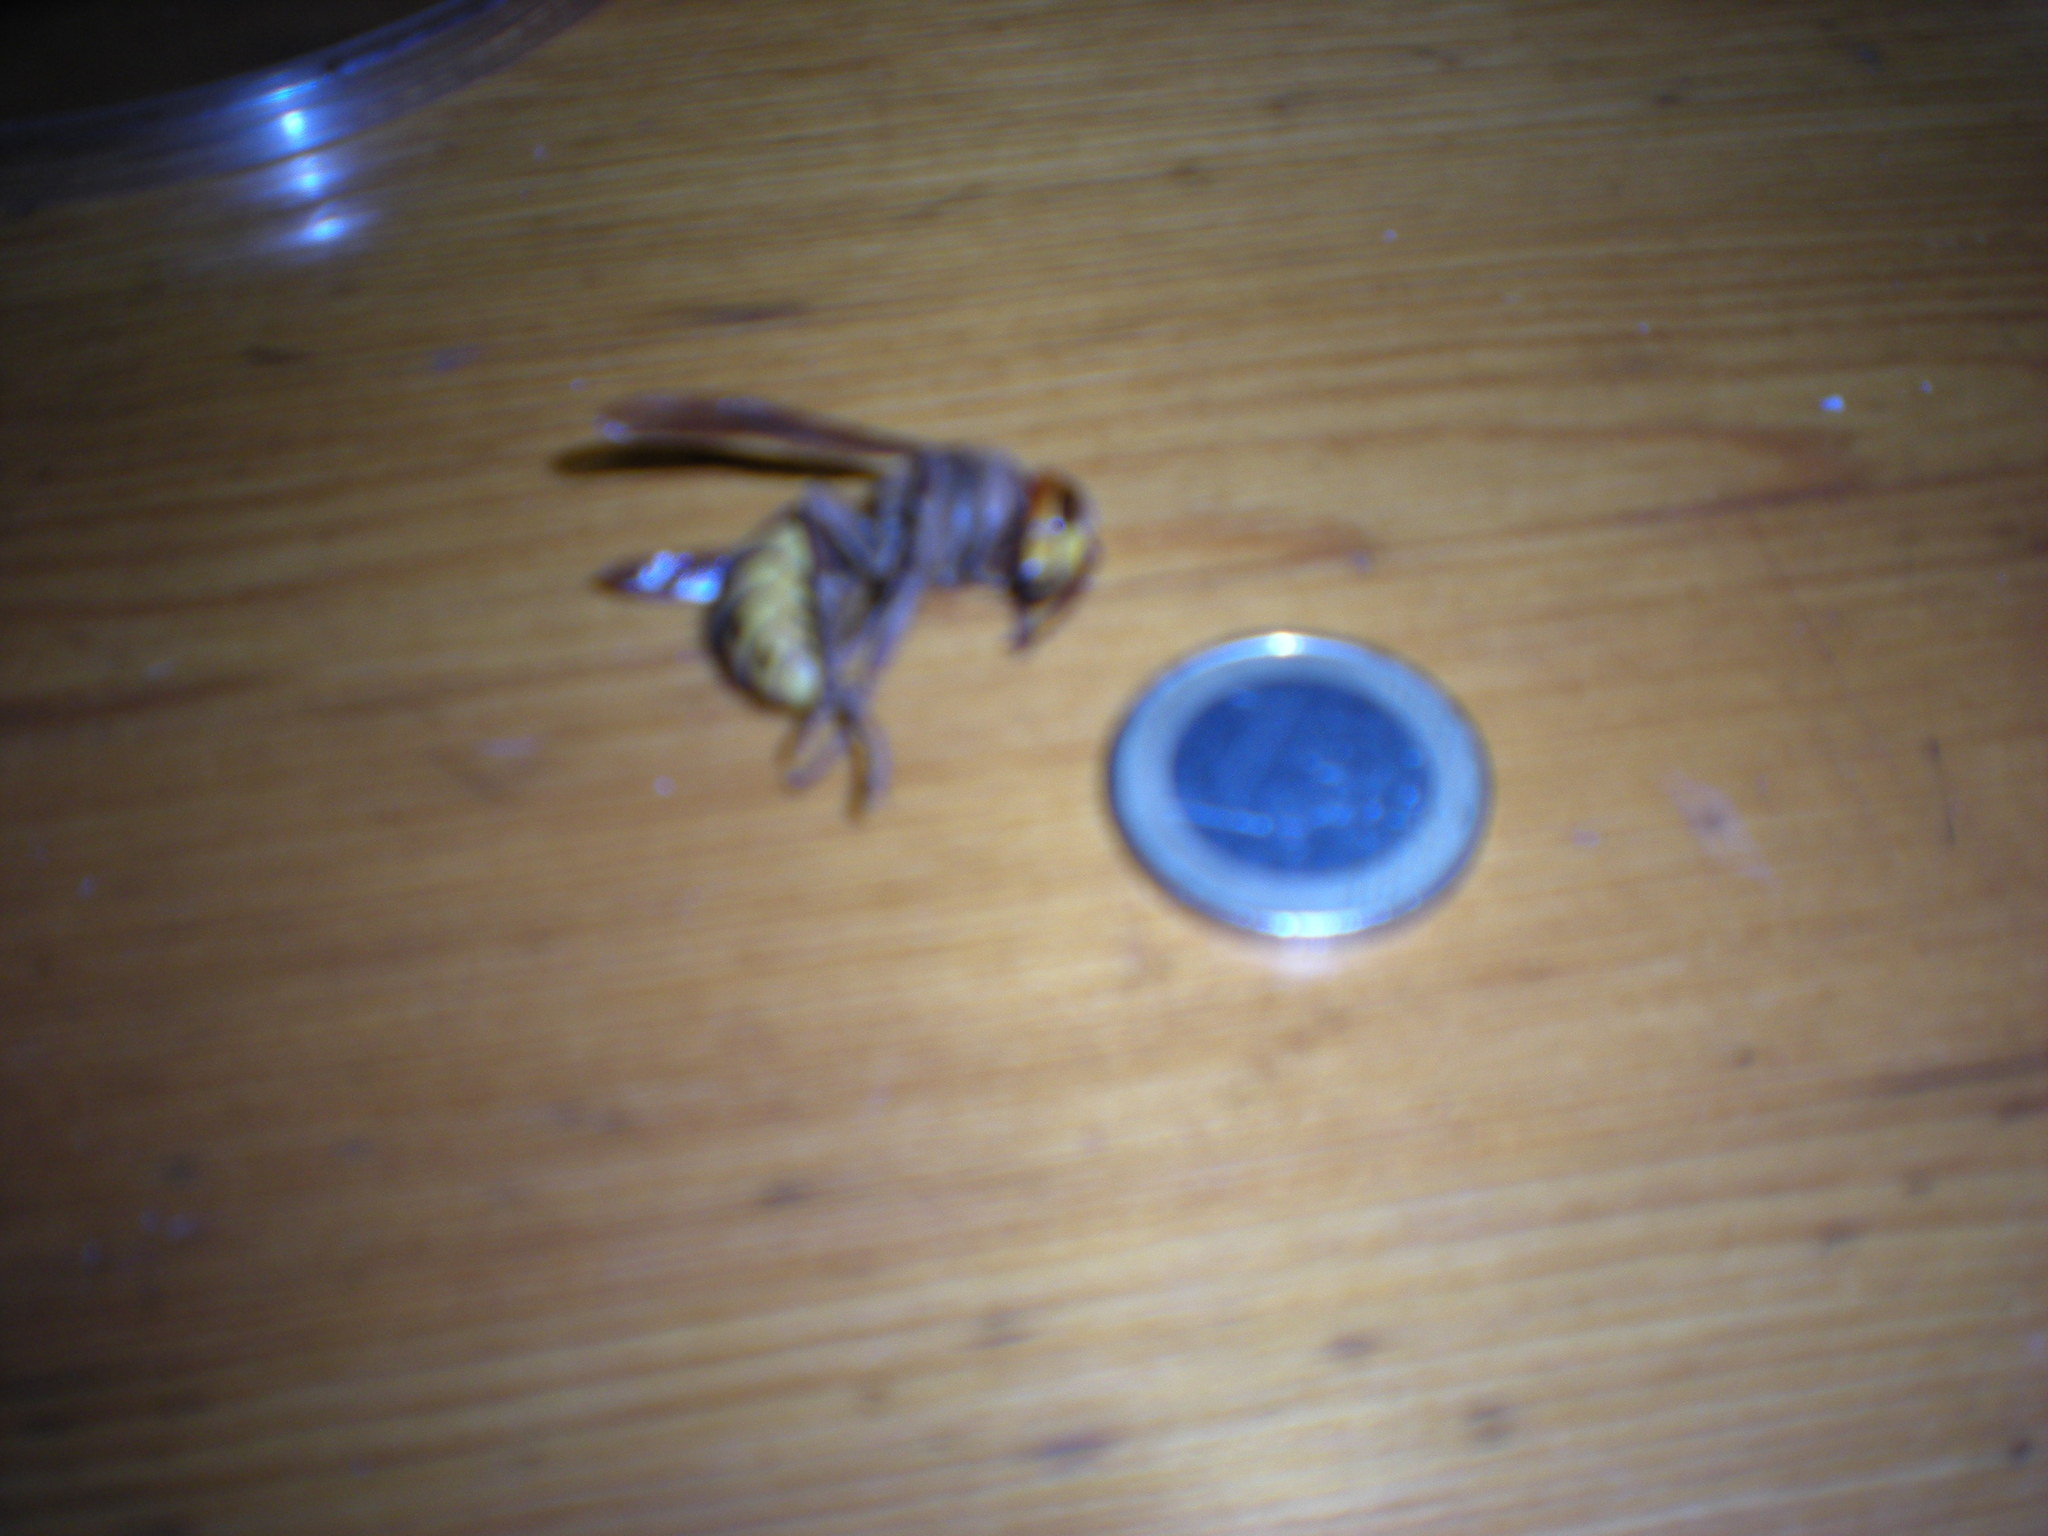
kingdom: Animalia
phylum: Arthropoda
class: Insecta
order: Hymenoptera
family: Vespidae
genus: Vespa
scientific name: Vespa crabro
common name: Hornet
